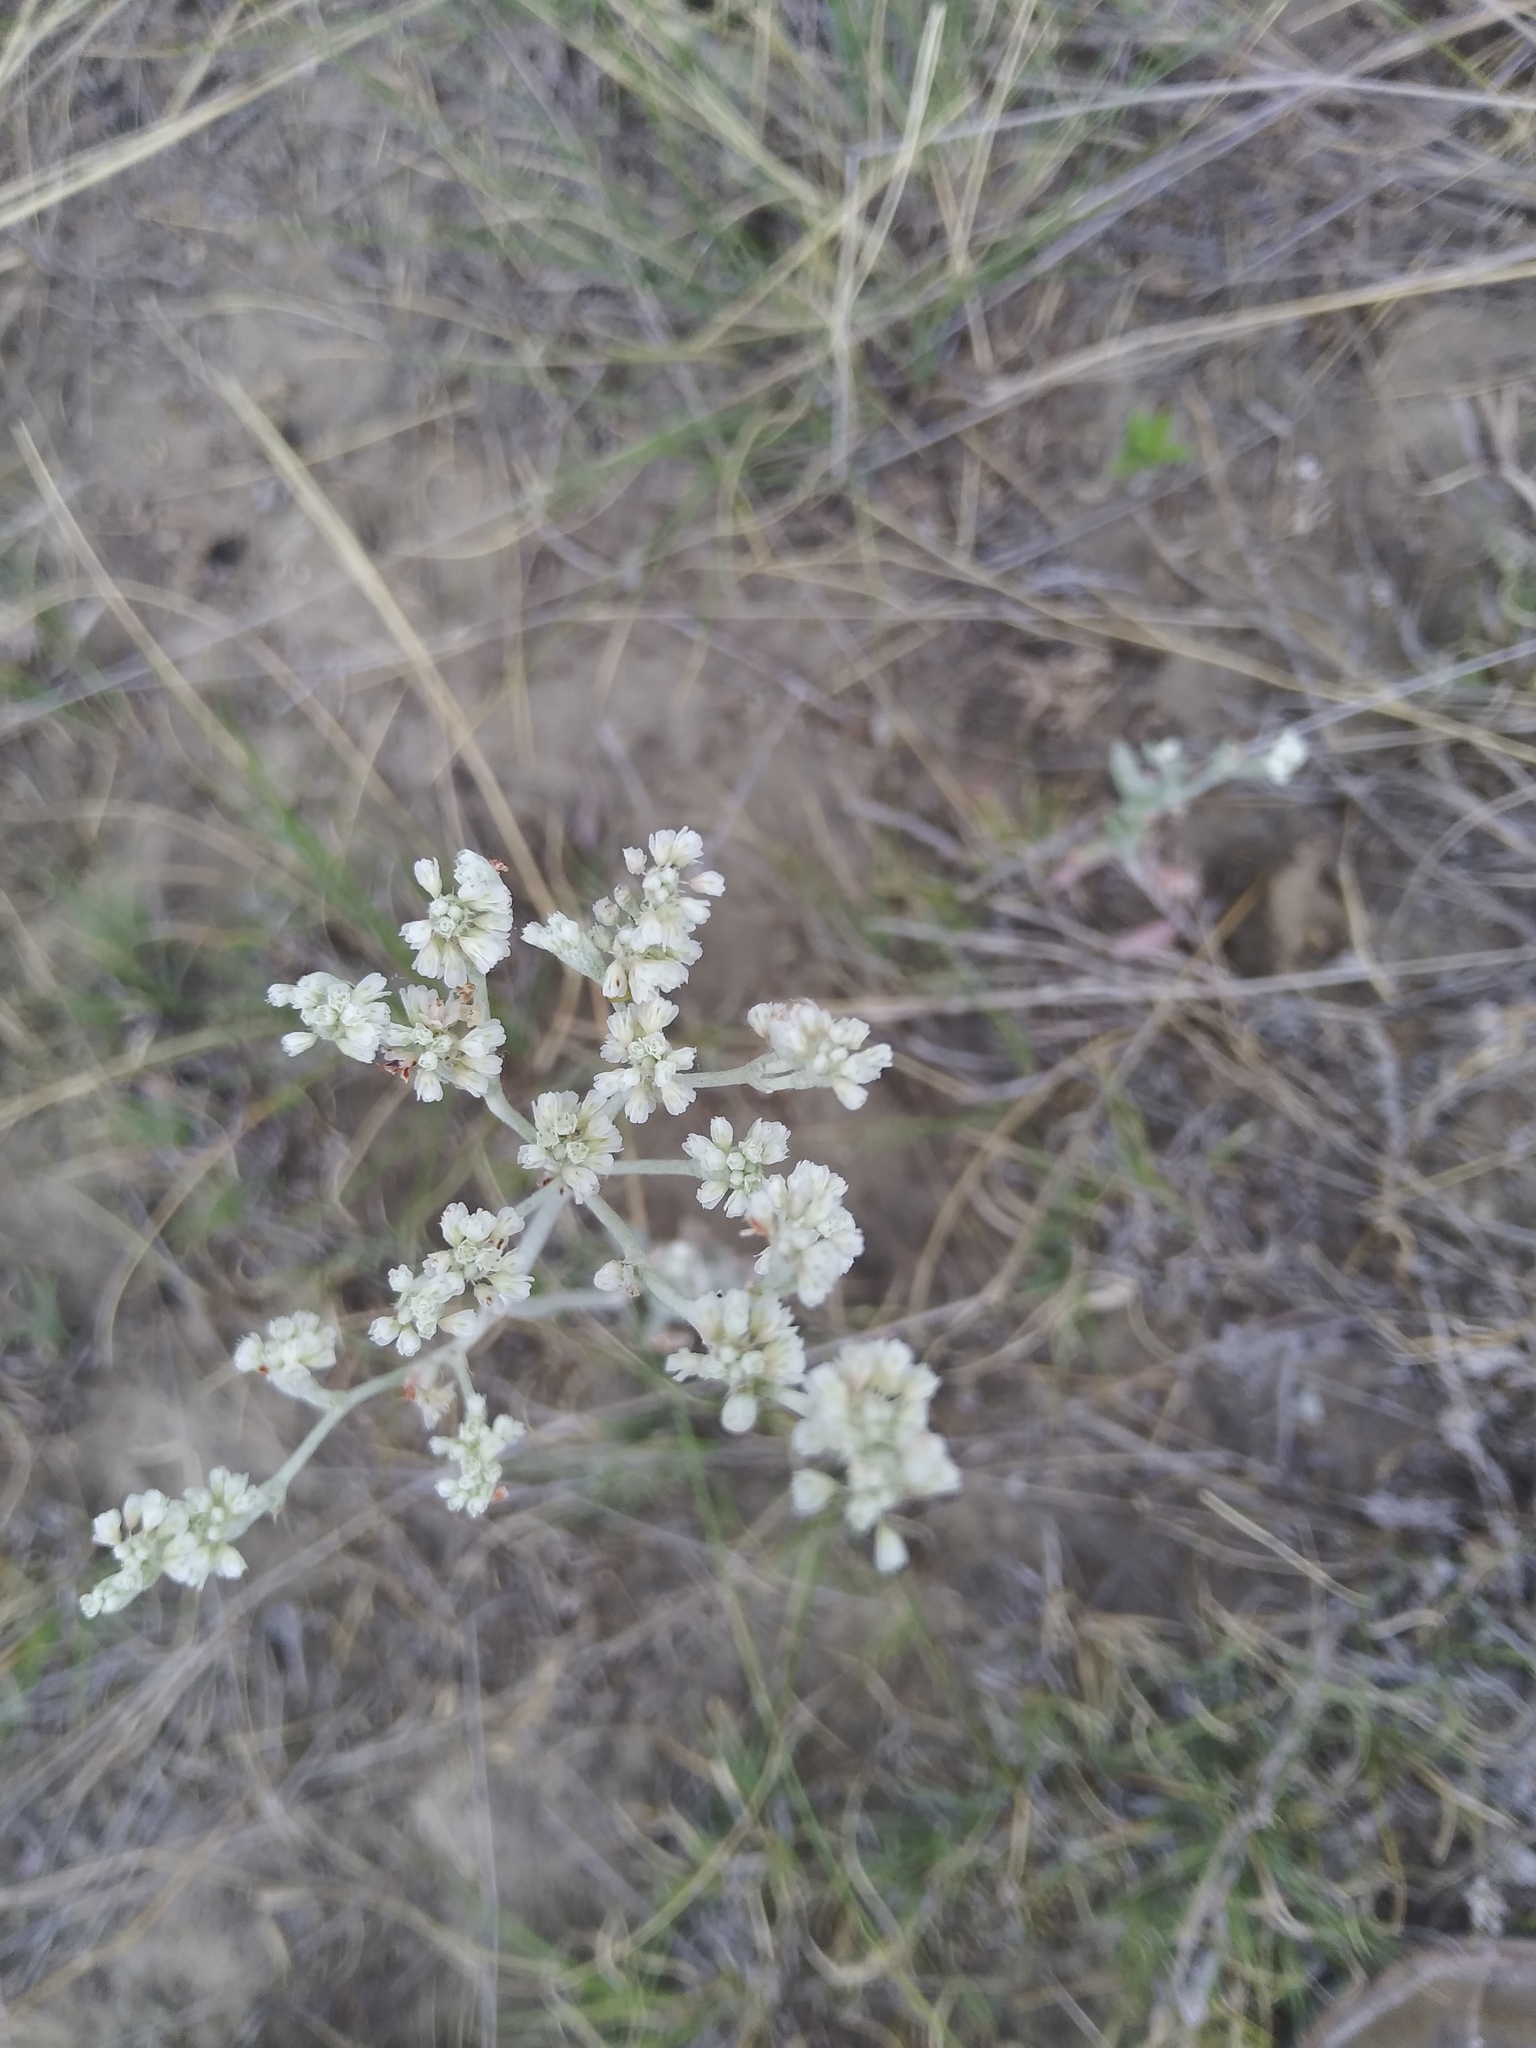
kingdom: Plantae
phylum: Tracheophyta
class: Magnoliopsida
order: Caryophyllales
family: Polygonaceae
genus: Eriogonum
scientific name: Eriogonum annuum
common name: Annual wild buckwheat
